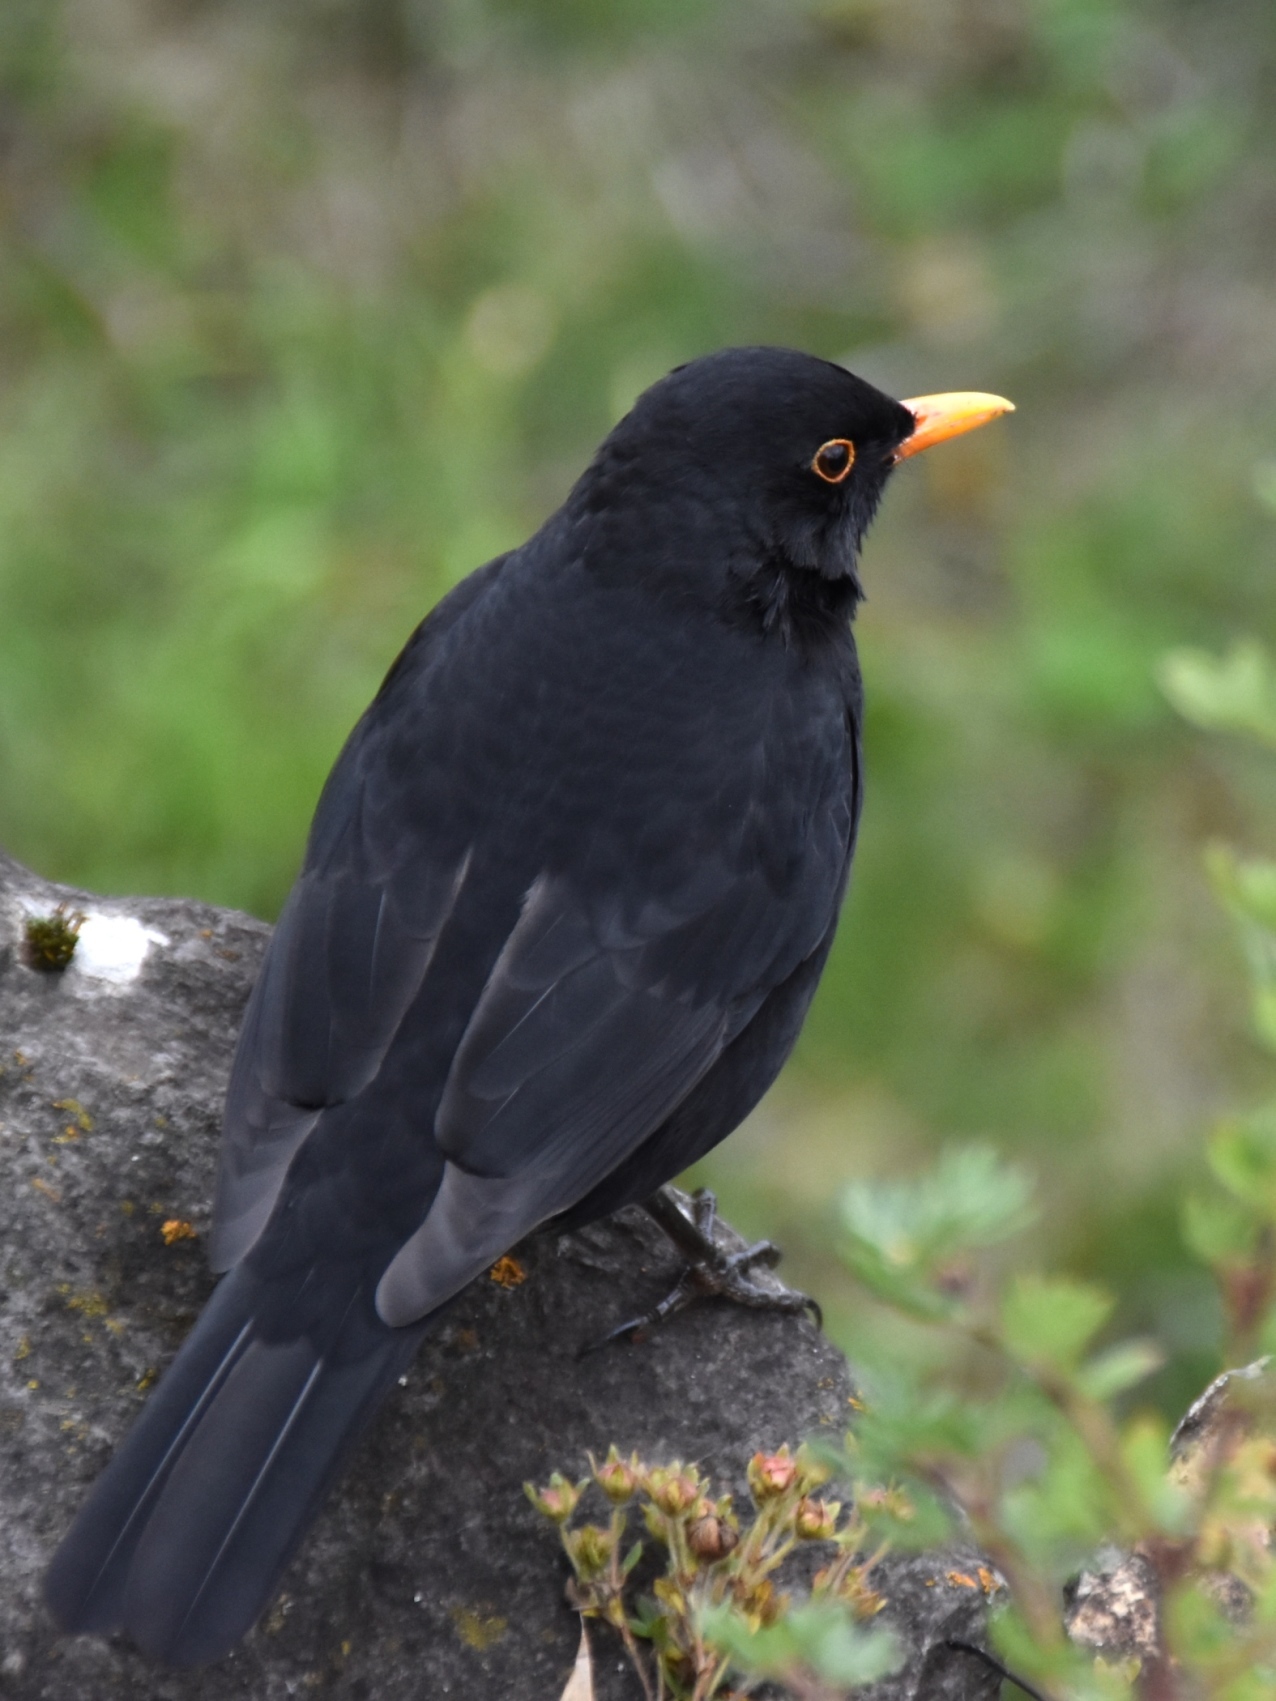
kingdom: Animalia
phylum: Chordata
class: Aves
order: Passeriformes
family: Turdidae
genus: Turdus
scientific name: Turdus merula
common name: Common blackbird
